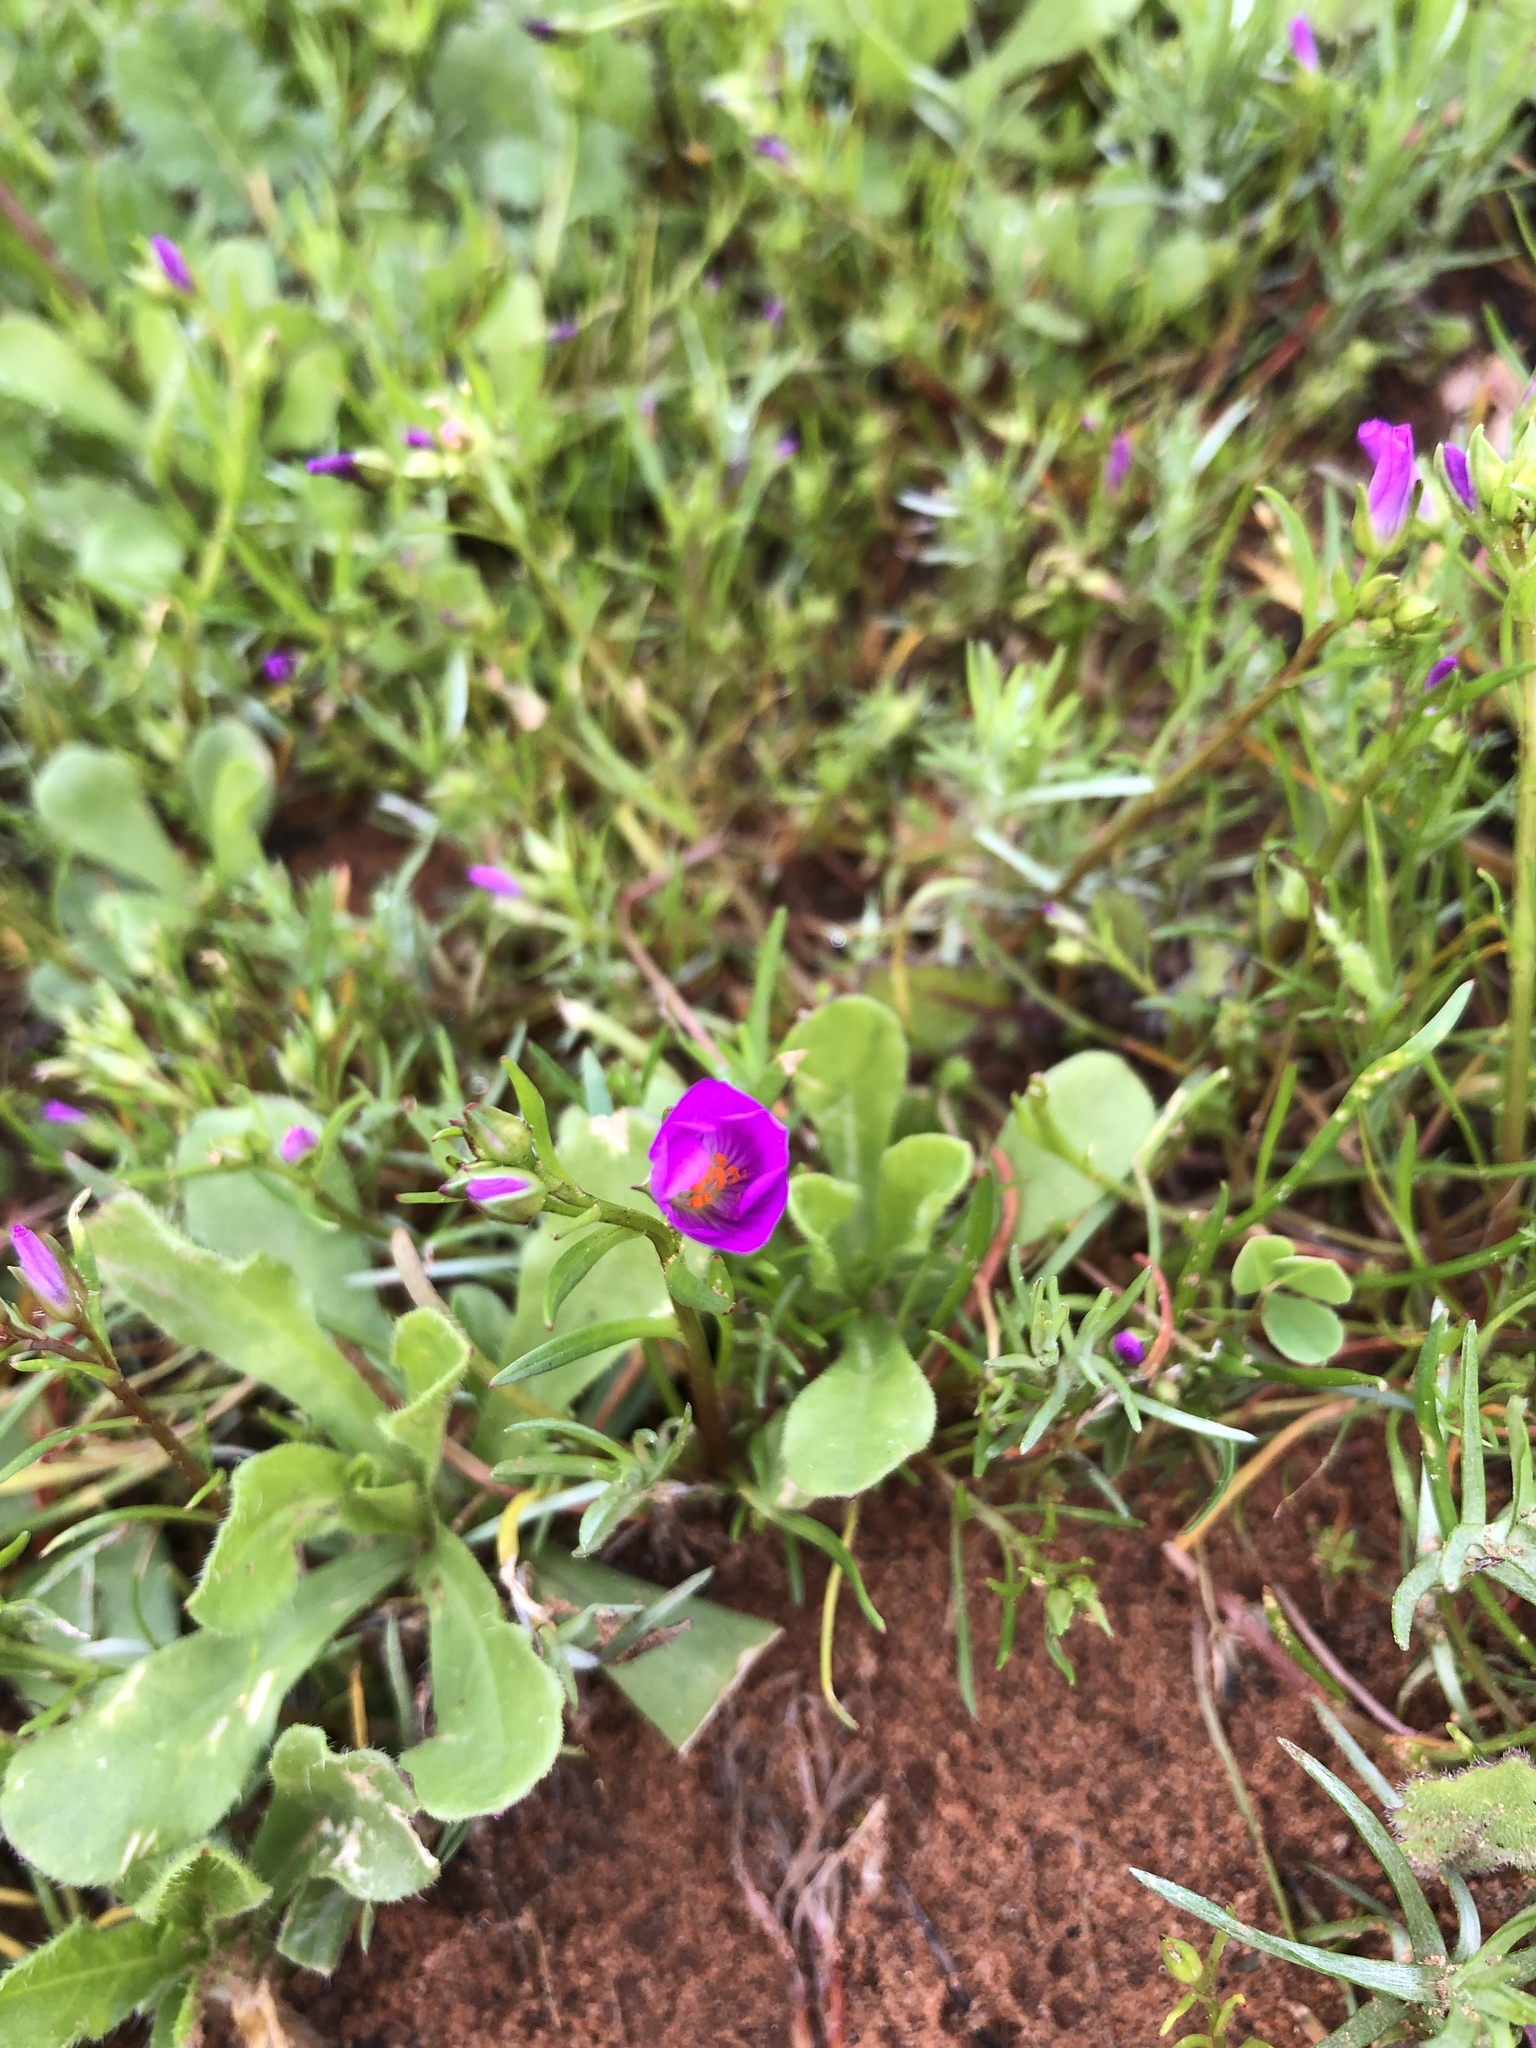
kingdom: Plantae
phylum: Tracheophyta
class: Magnoliopsida
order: Caryophyllales
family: Montiaceae
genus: Calandrinia
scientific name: Calandrinia menziesii
